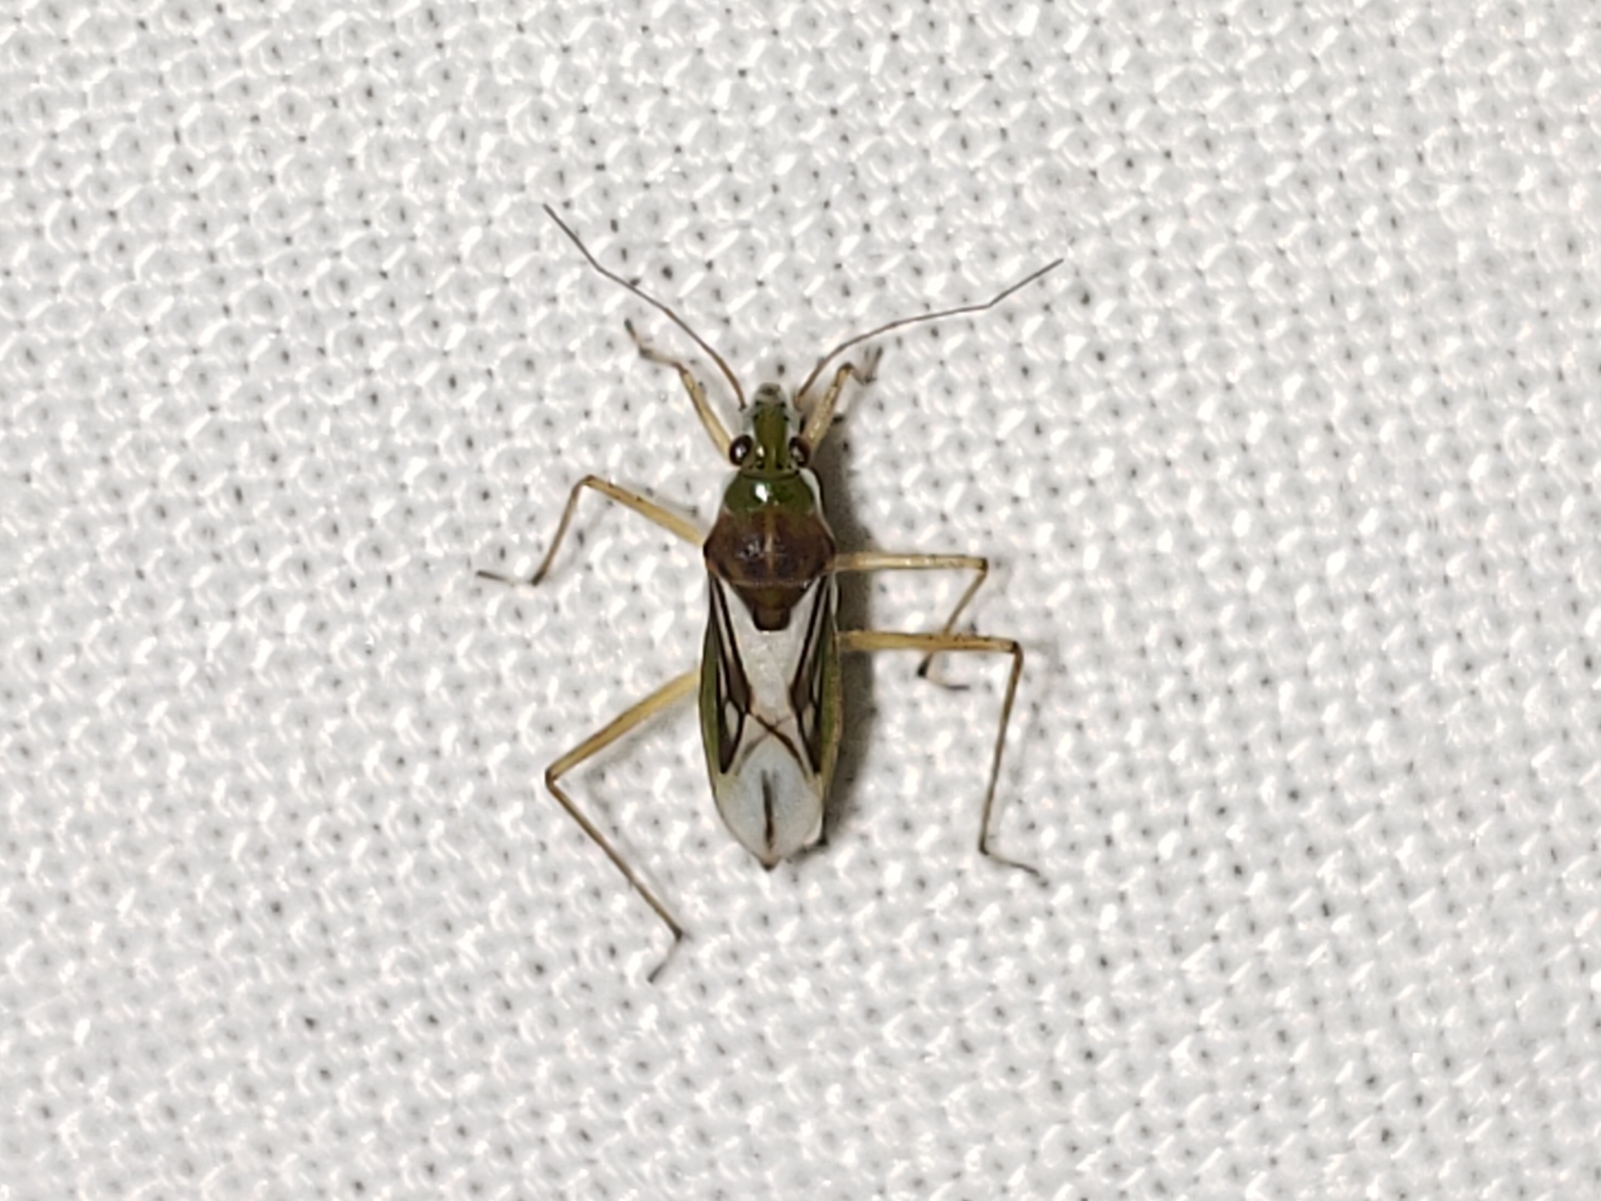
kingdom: Animalia
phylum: Arthropoda
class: Insecta
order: Hemiptera
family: Mesoveliidae
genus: Mesovelia
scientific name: Mesovelia mulsanti
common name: Water treaders
